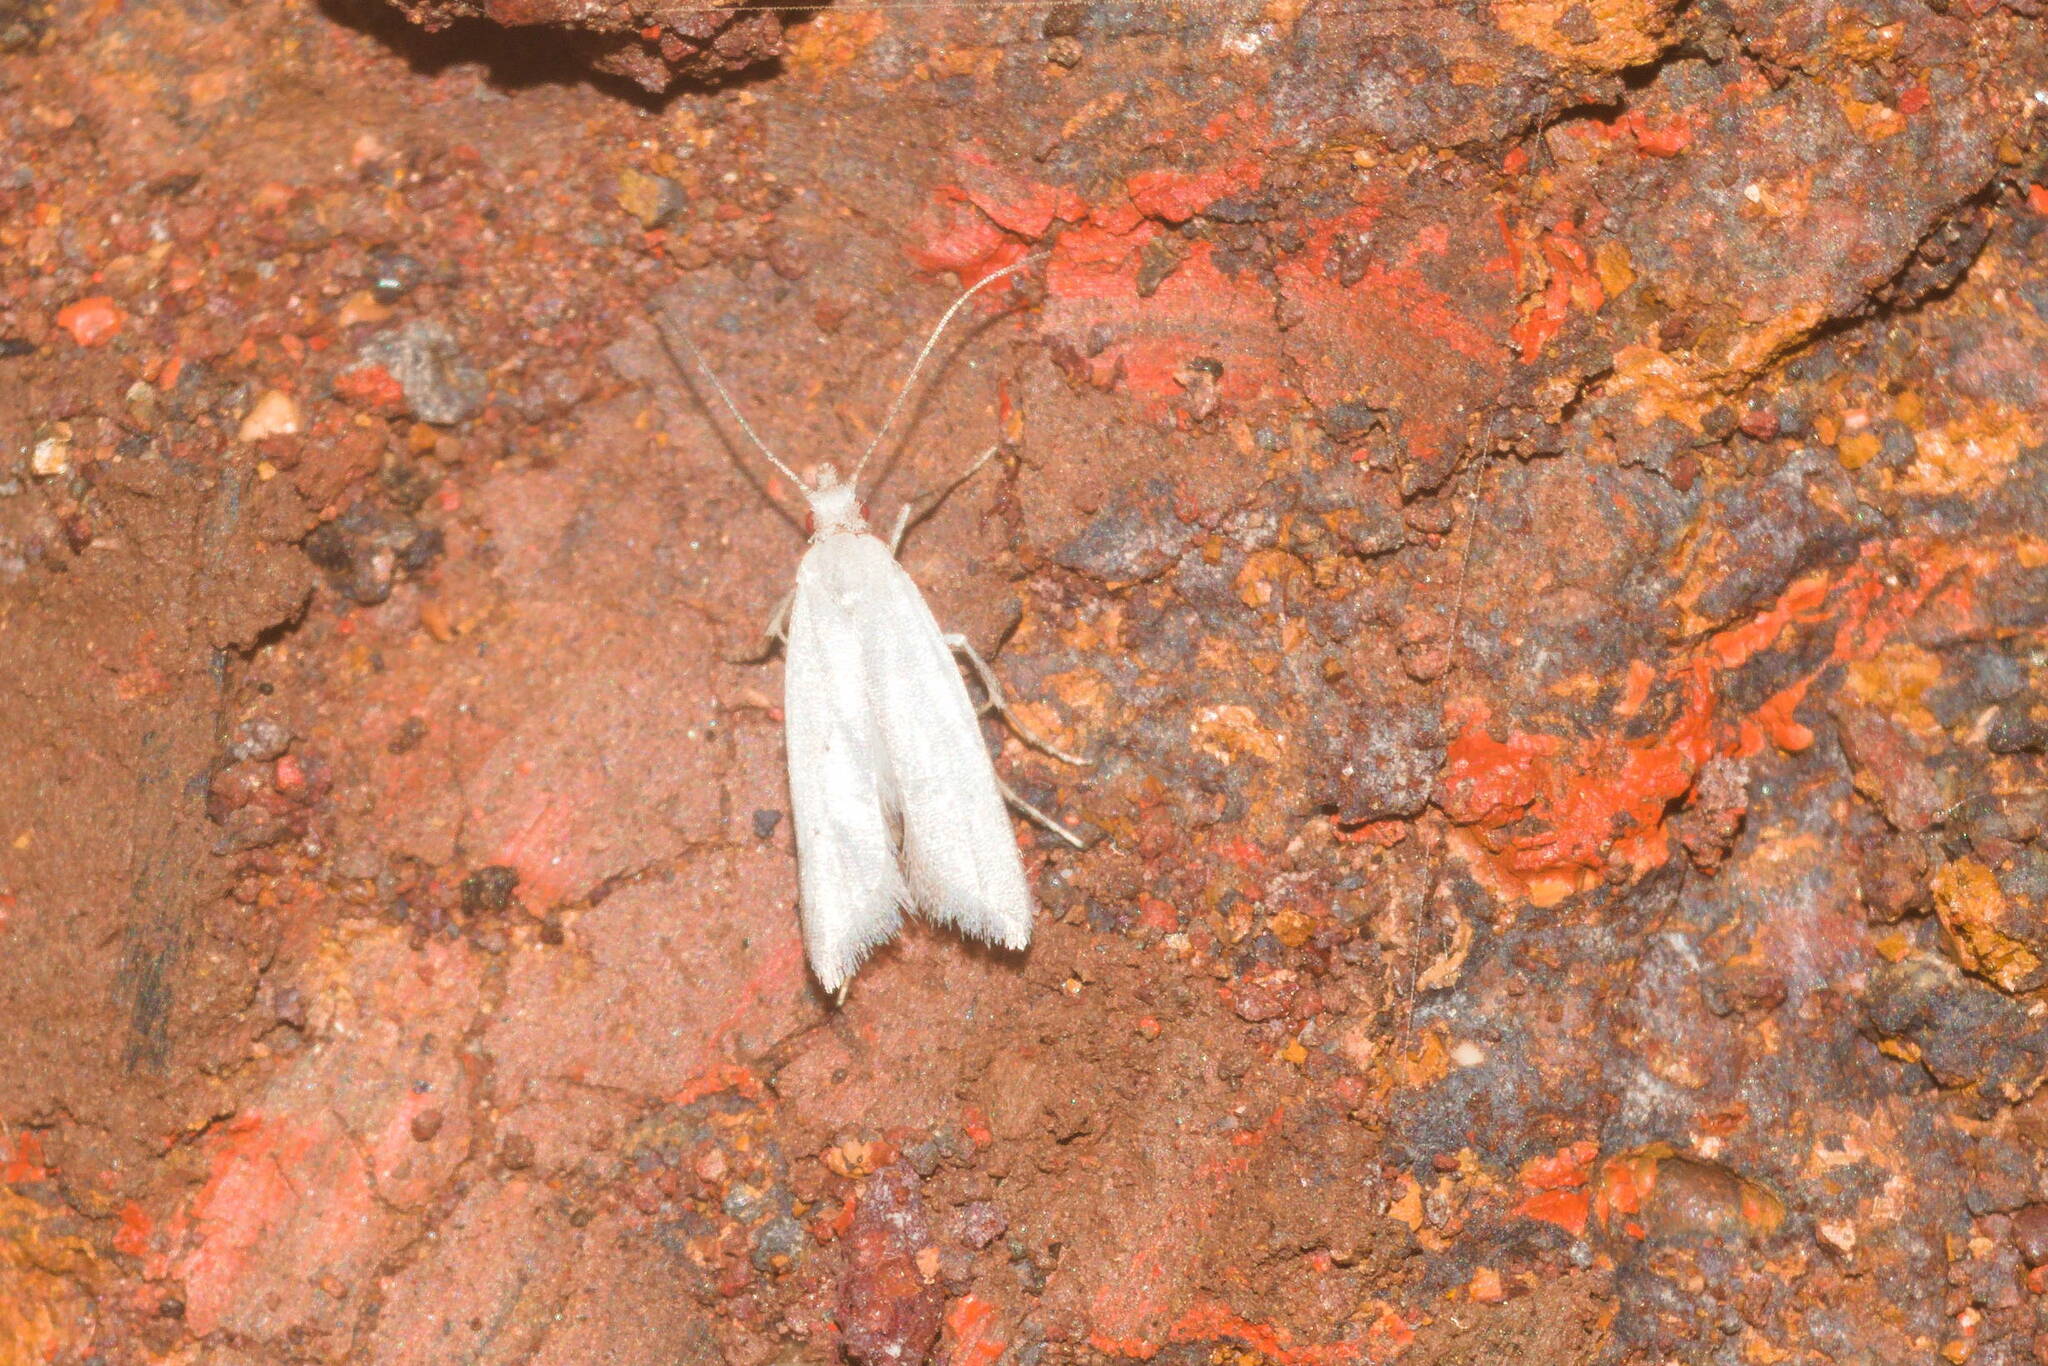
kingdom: Animalia
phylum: Arthropoda
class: Insecta
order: Lepidoptera
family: Carposinidae
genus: Carposina
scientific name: Carposina gracillima
